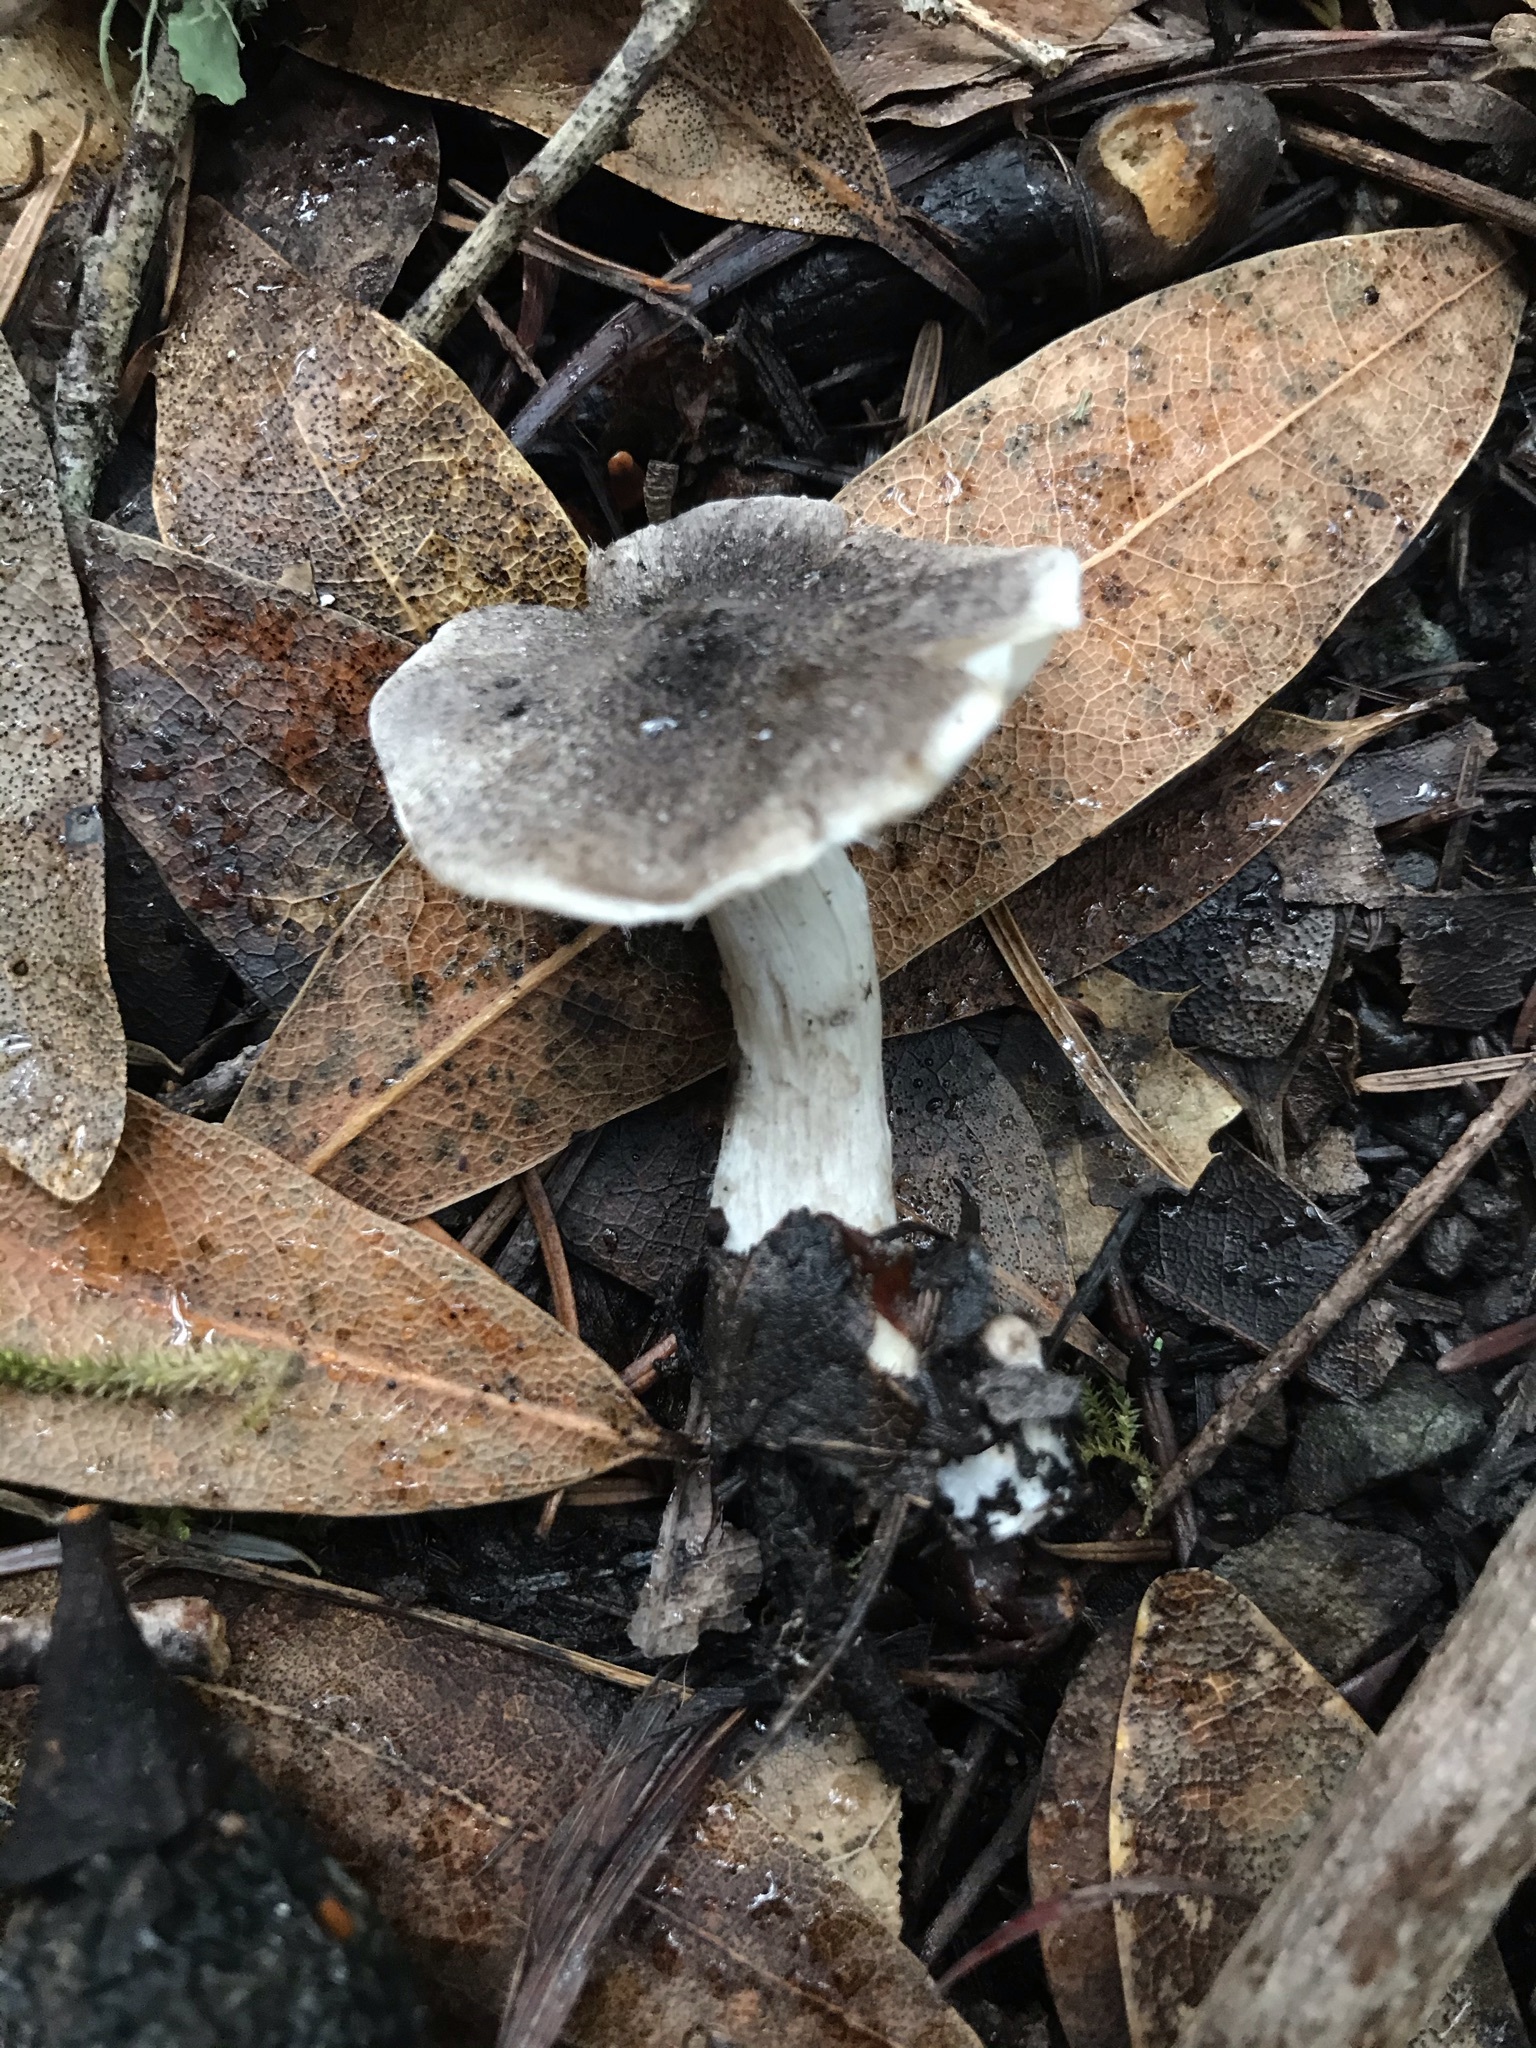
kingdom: Fungi
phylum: Basidiomycota
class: Agaricomycetes
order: Agaricales
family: Tricholomataceae
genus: Tricholoma
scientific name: Tricholoma terreum
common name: Grey knight
